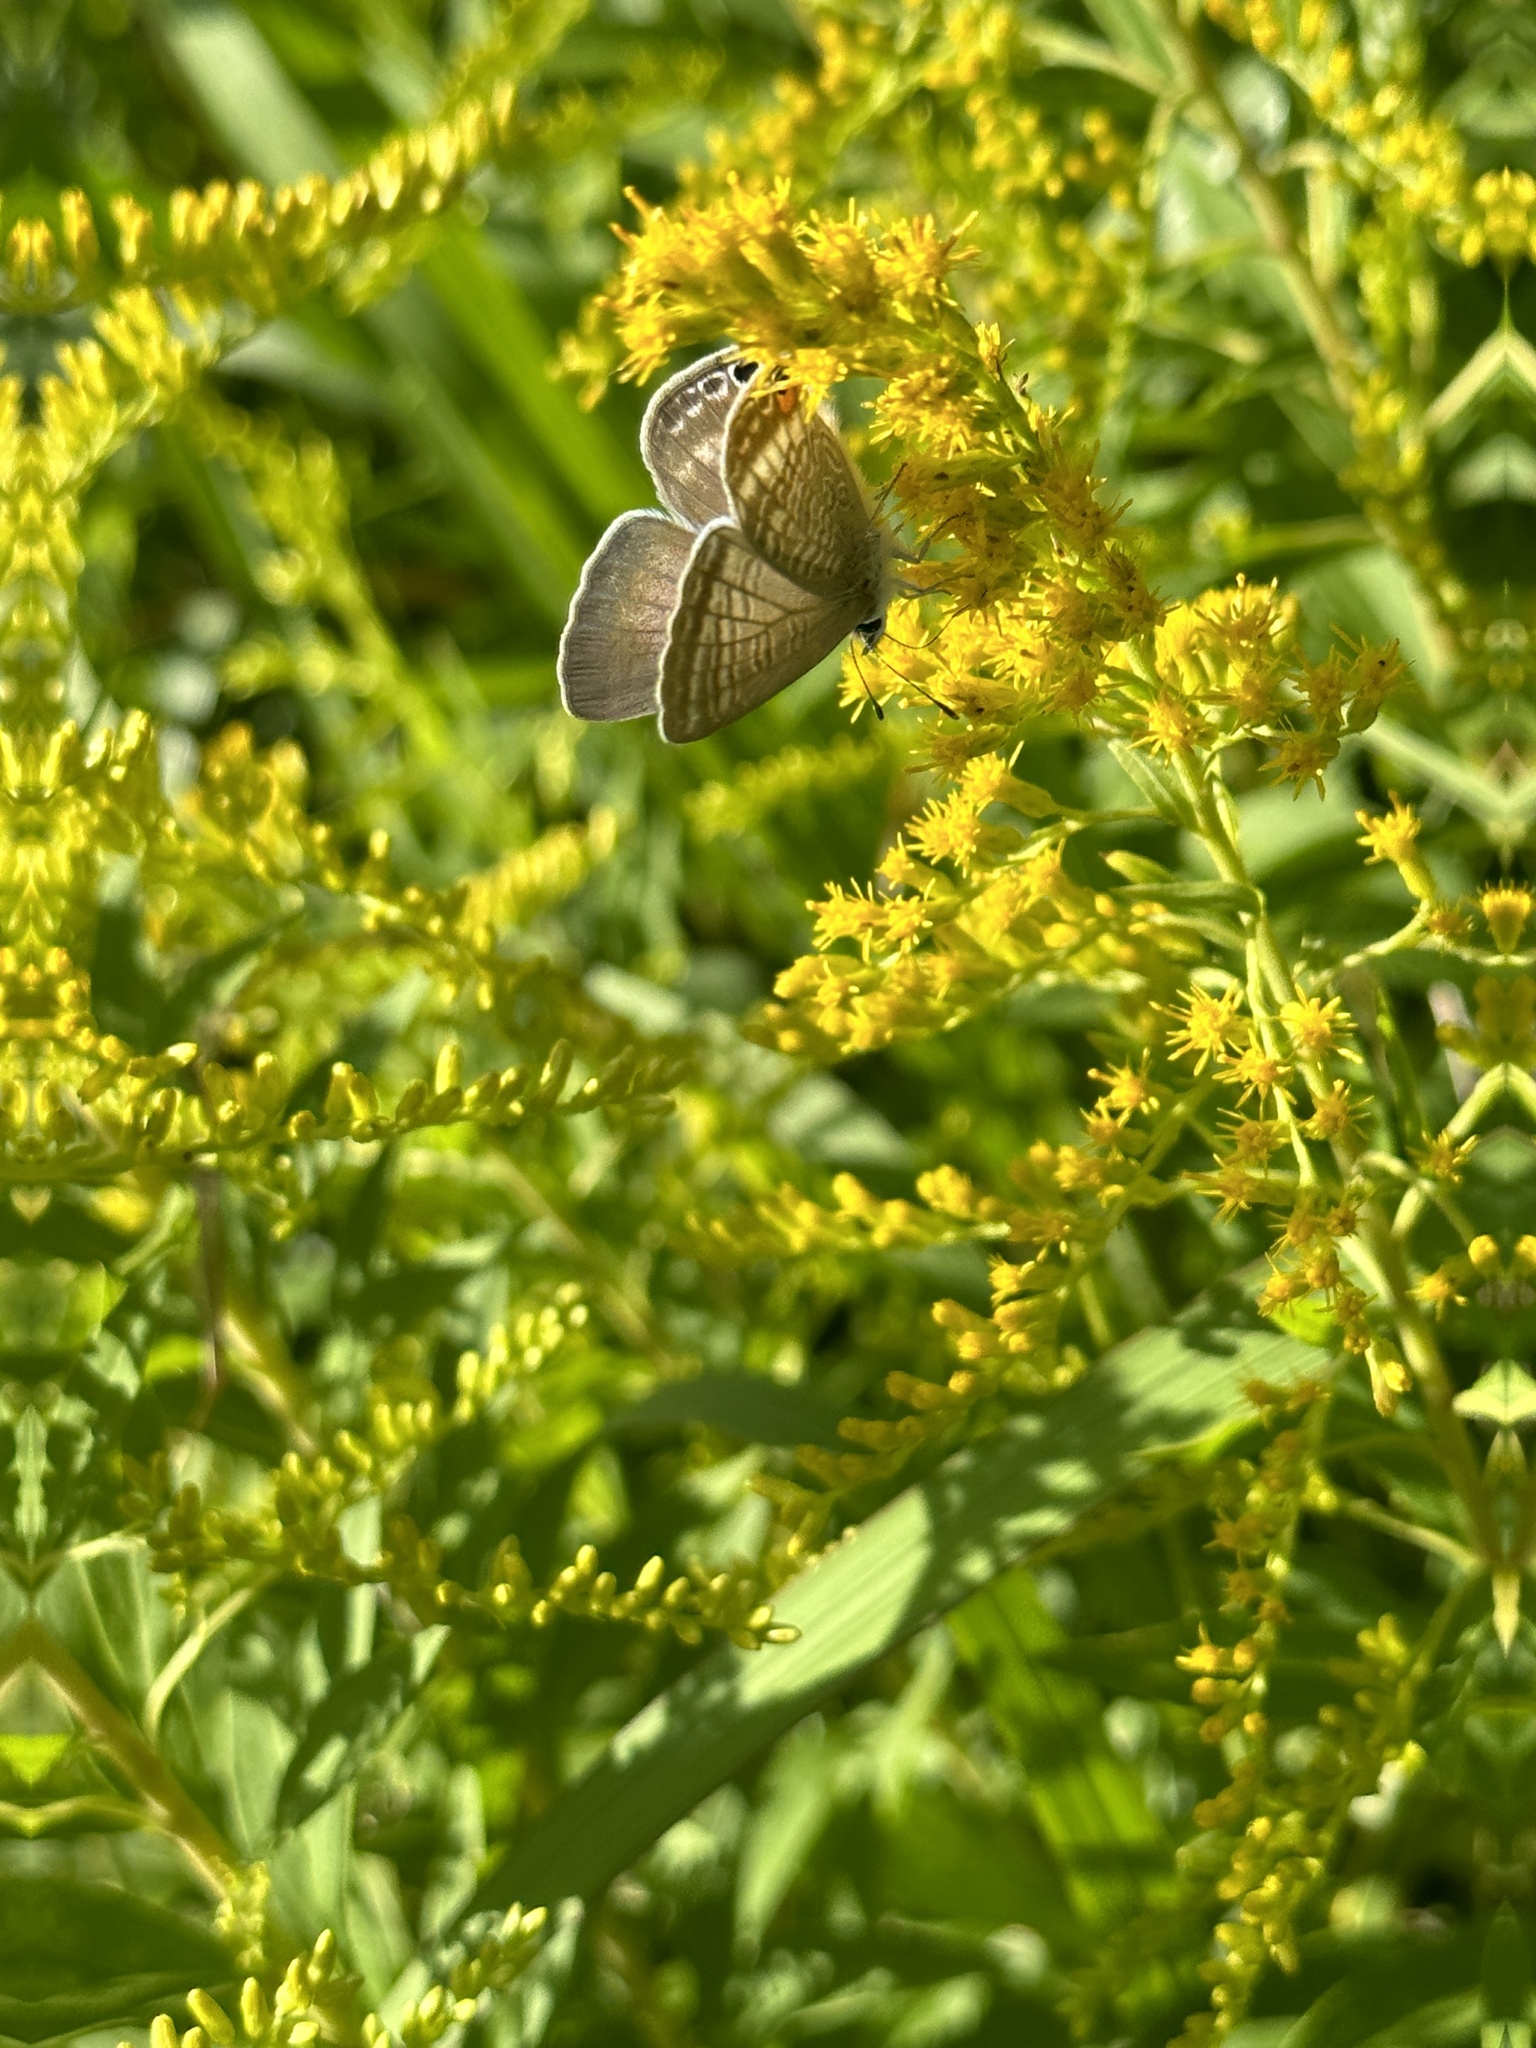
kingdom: Animalia
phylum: Arthropoda
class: Insecta
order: Lepidoptera
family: Lycaenidae
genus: Lampides
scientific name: Lampides boeticus
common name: Long-tailed blue
